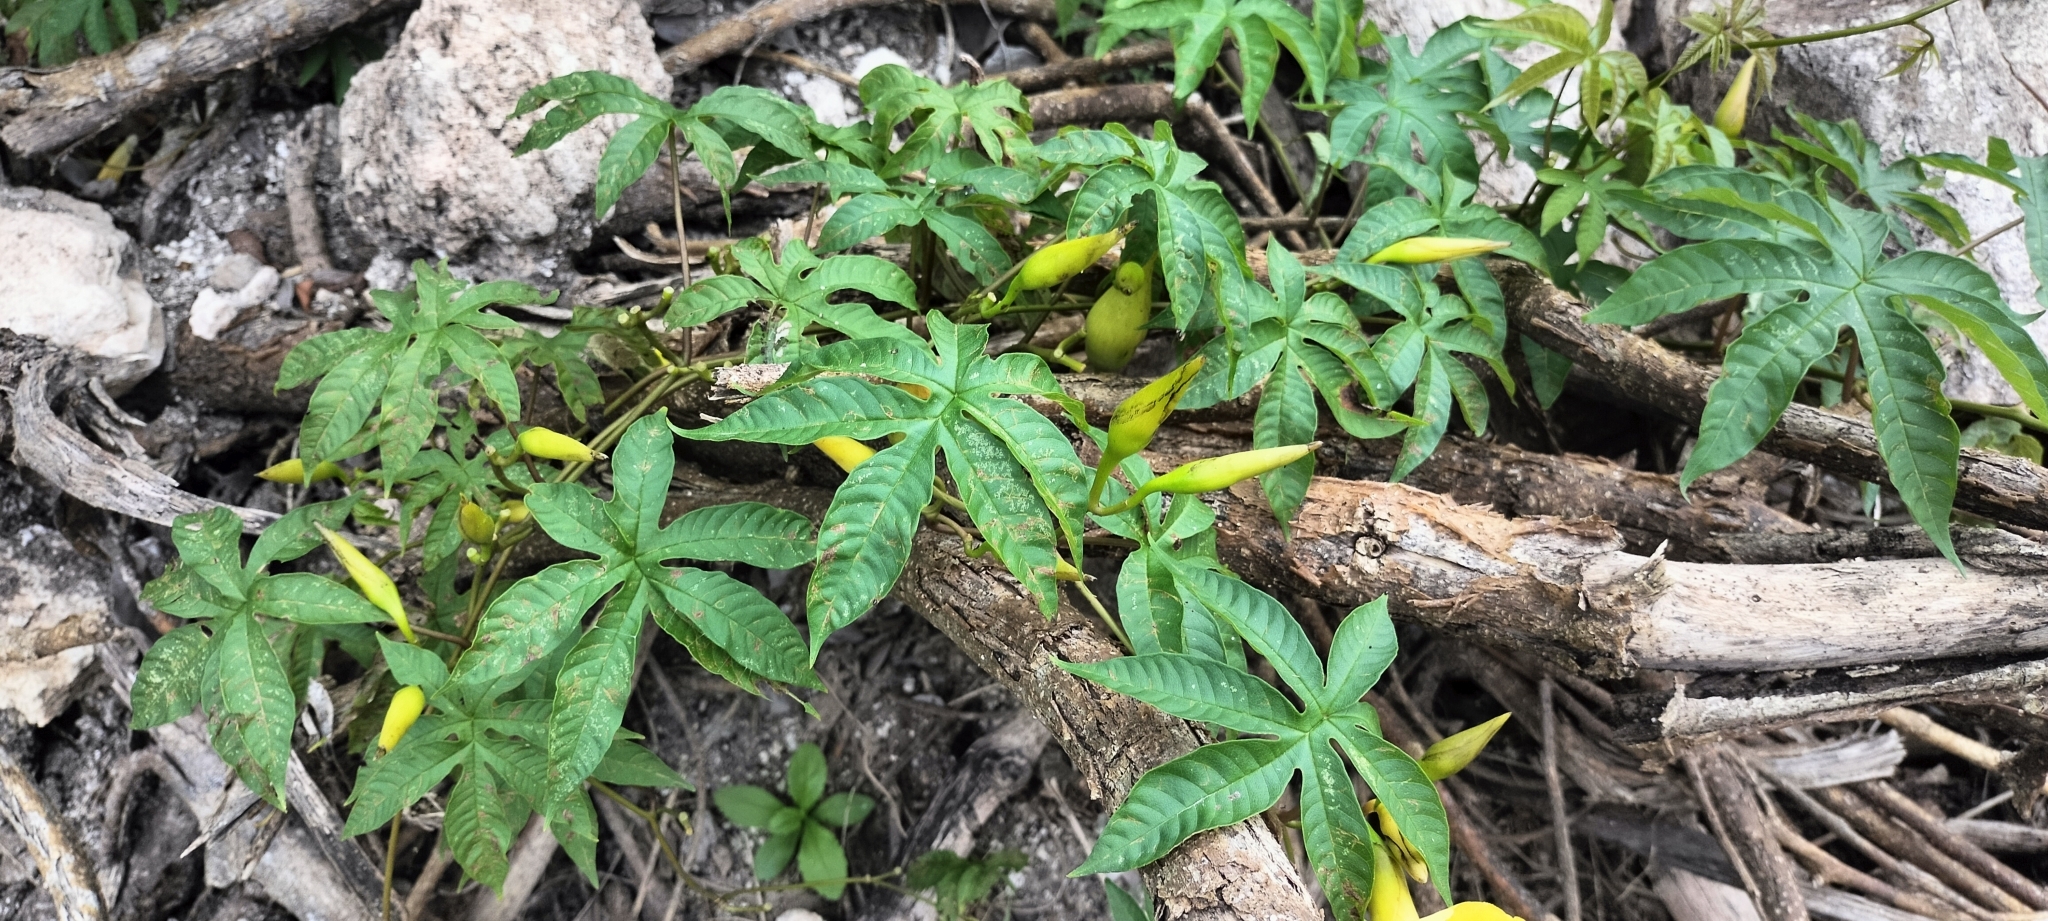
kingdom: Plantae
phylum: Tracheophyta
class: Magnoliopsida
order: Solanales
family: Convolvulaceae
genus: Distimake
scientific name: Distimake tuberosus
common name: Spanish arborvine
